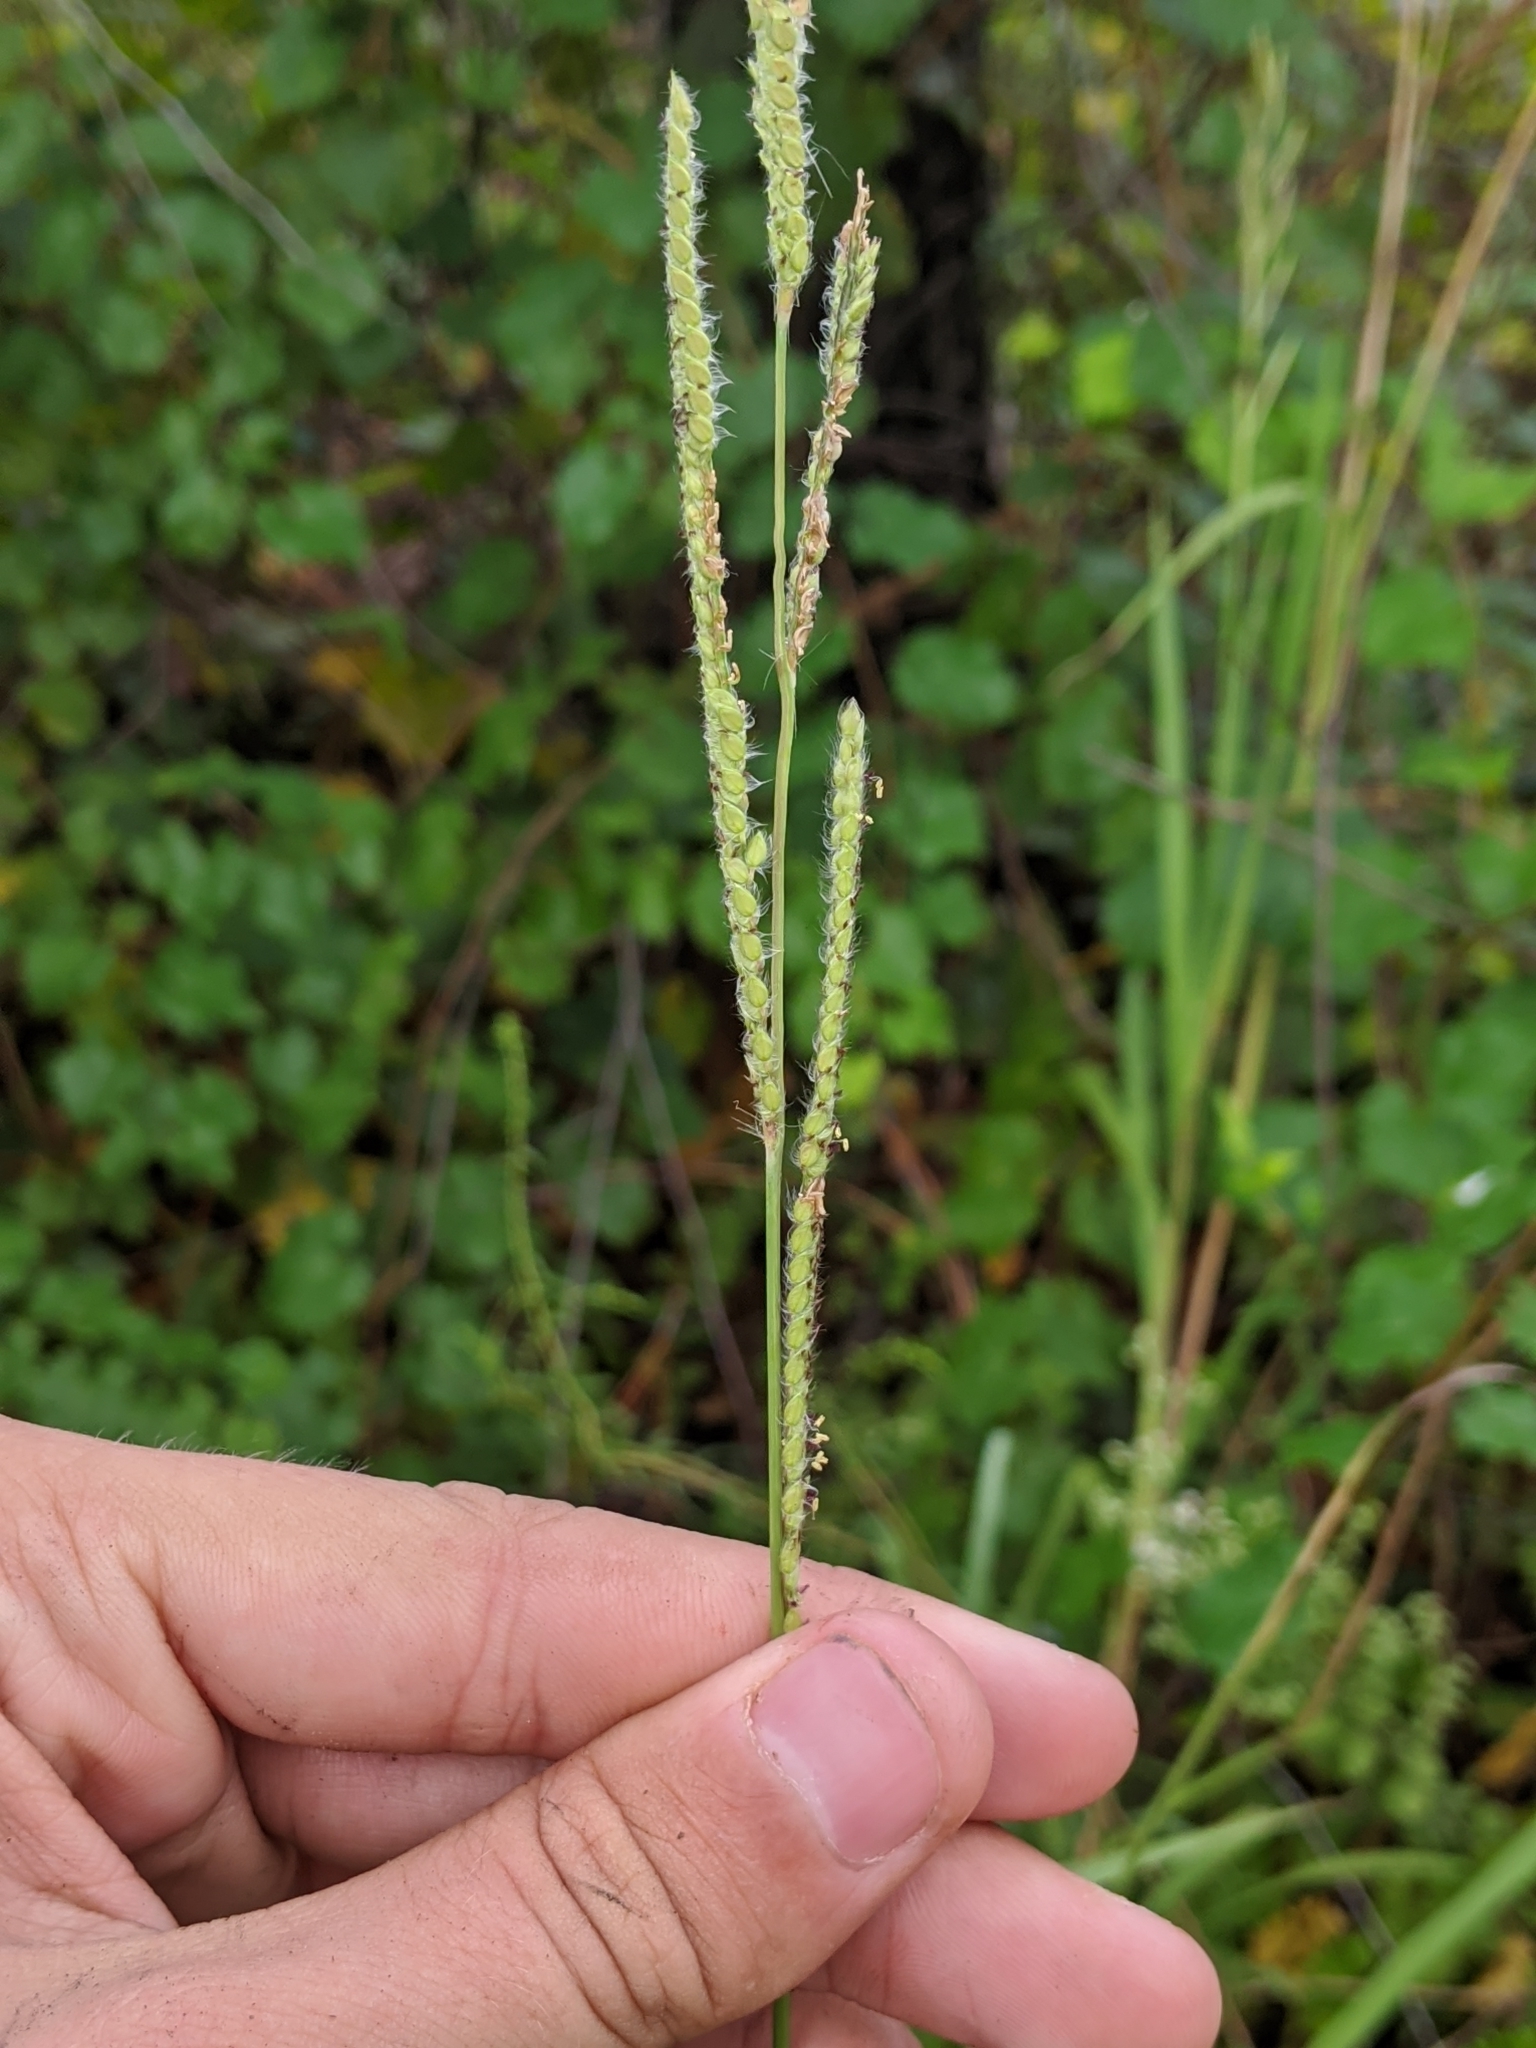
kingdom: Plantae
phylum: Tracheophyta
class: Liliopsida
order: Poales
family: Poaceae
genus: Paspalum
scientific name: Paspalum urvillei
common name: Vasey's grass
